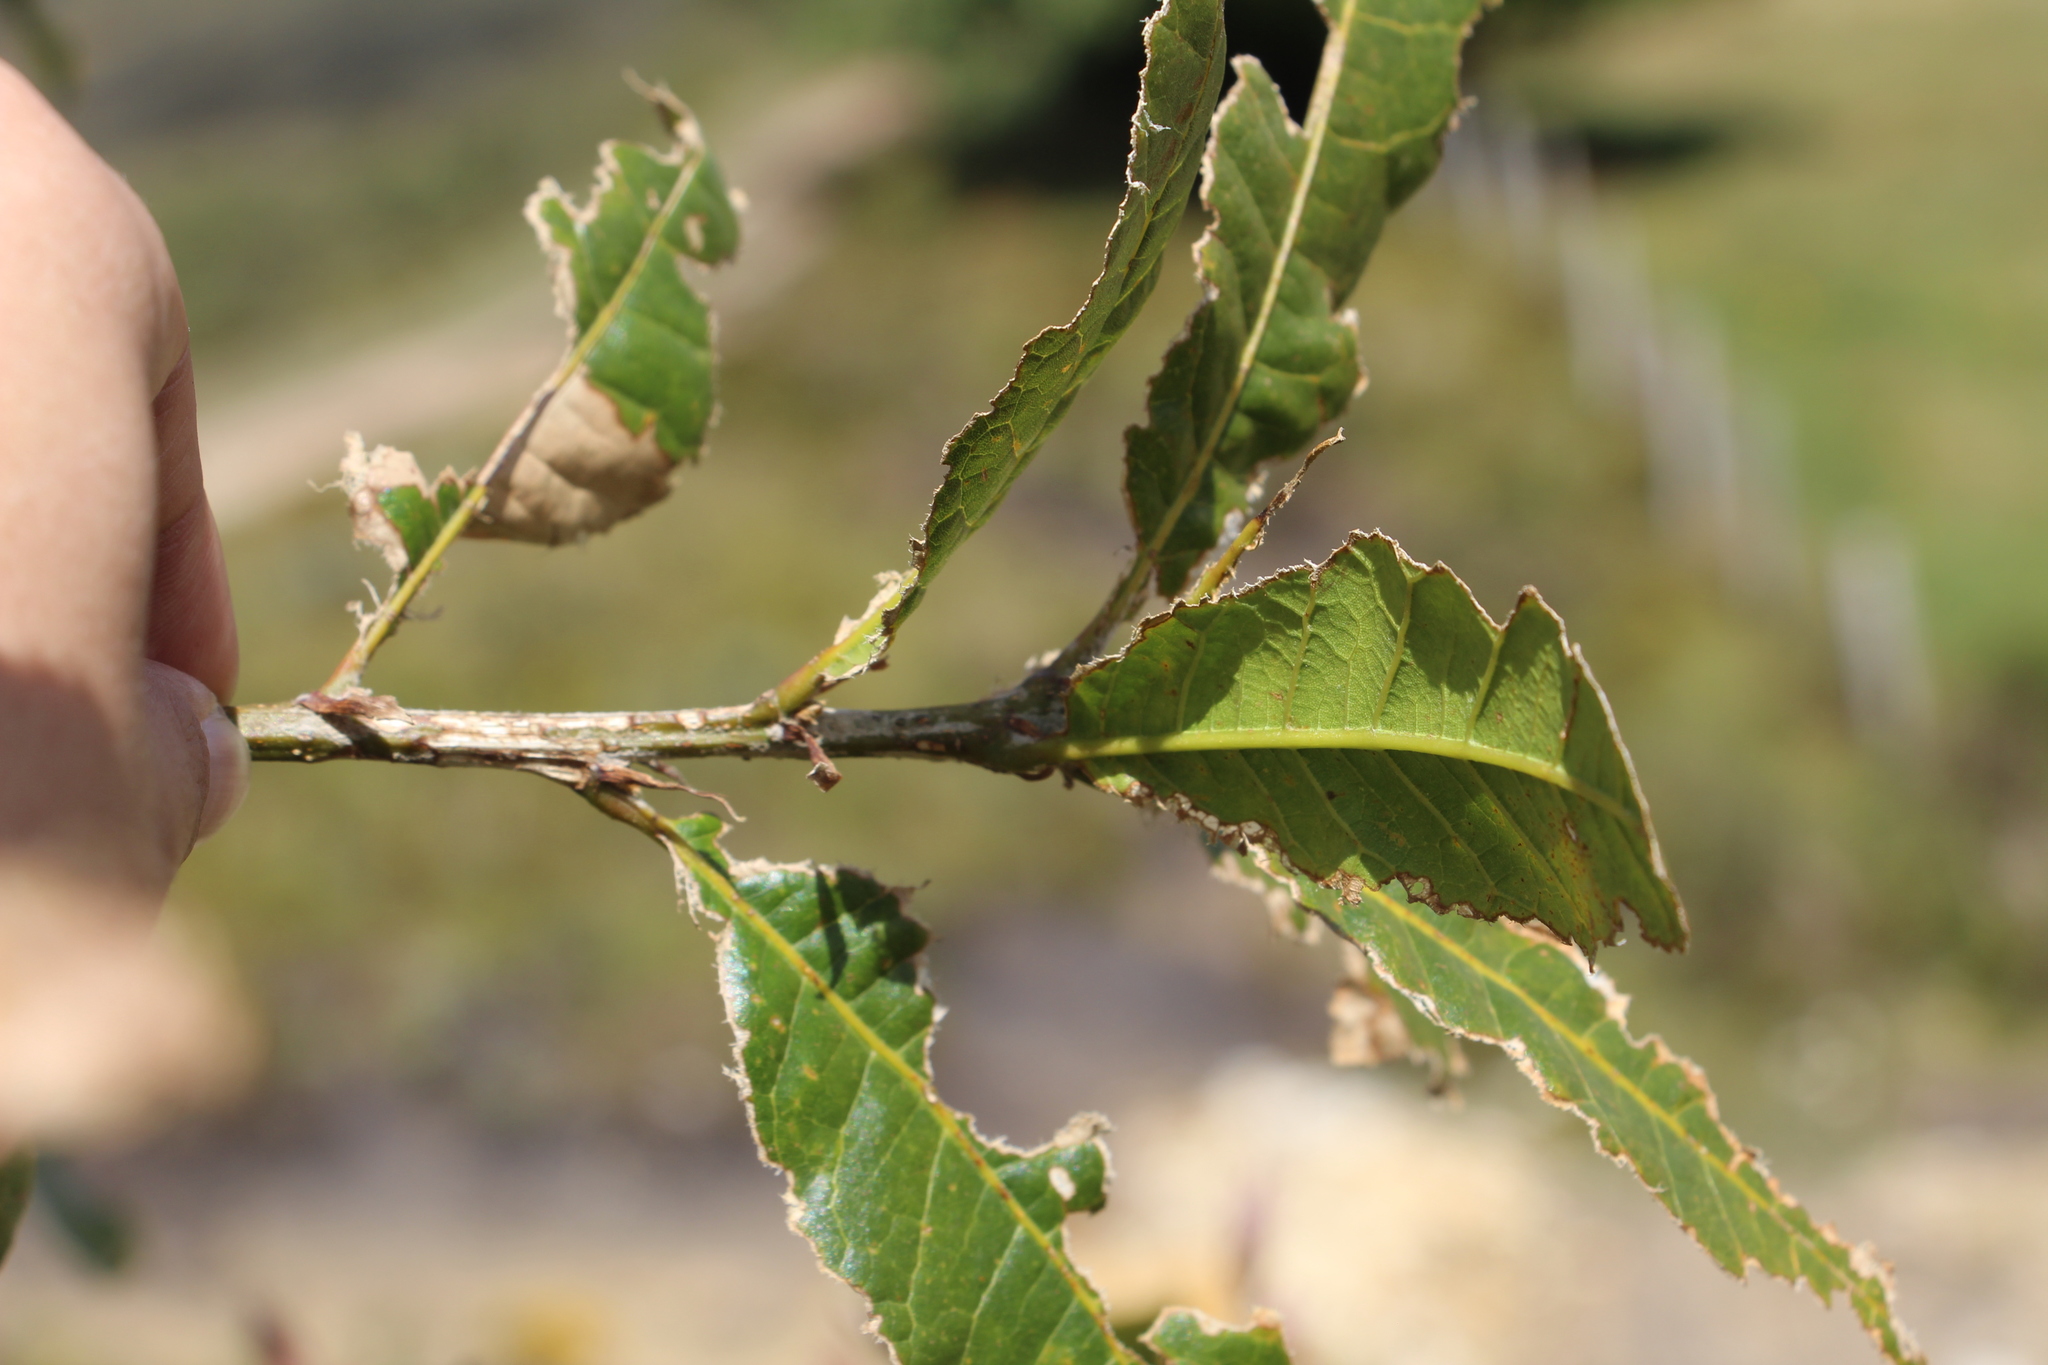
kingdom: Plantae
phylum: Tracheophyta
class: Magnoliopsida
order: Fagales
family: Fagaceae
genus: Quercus
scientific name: Quercus humboldtii
